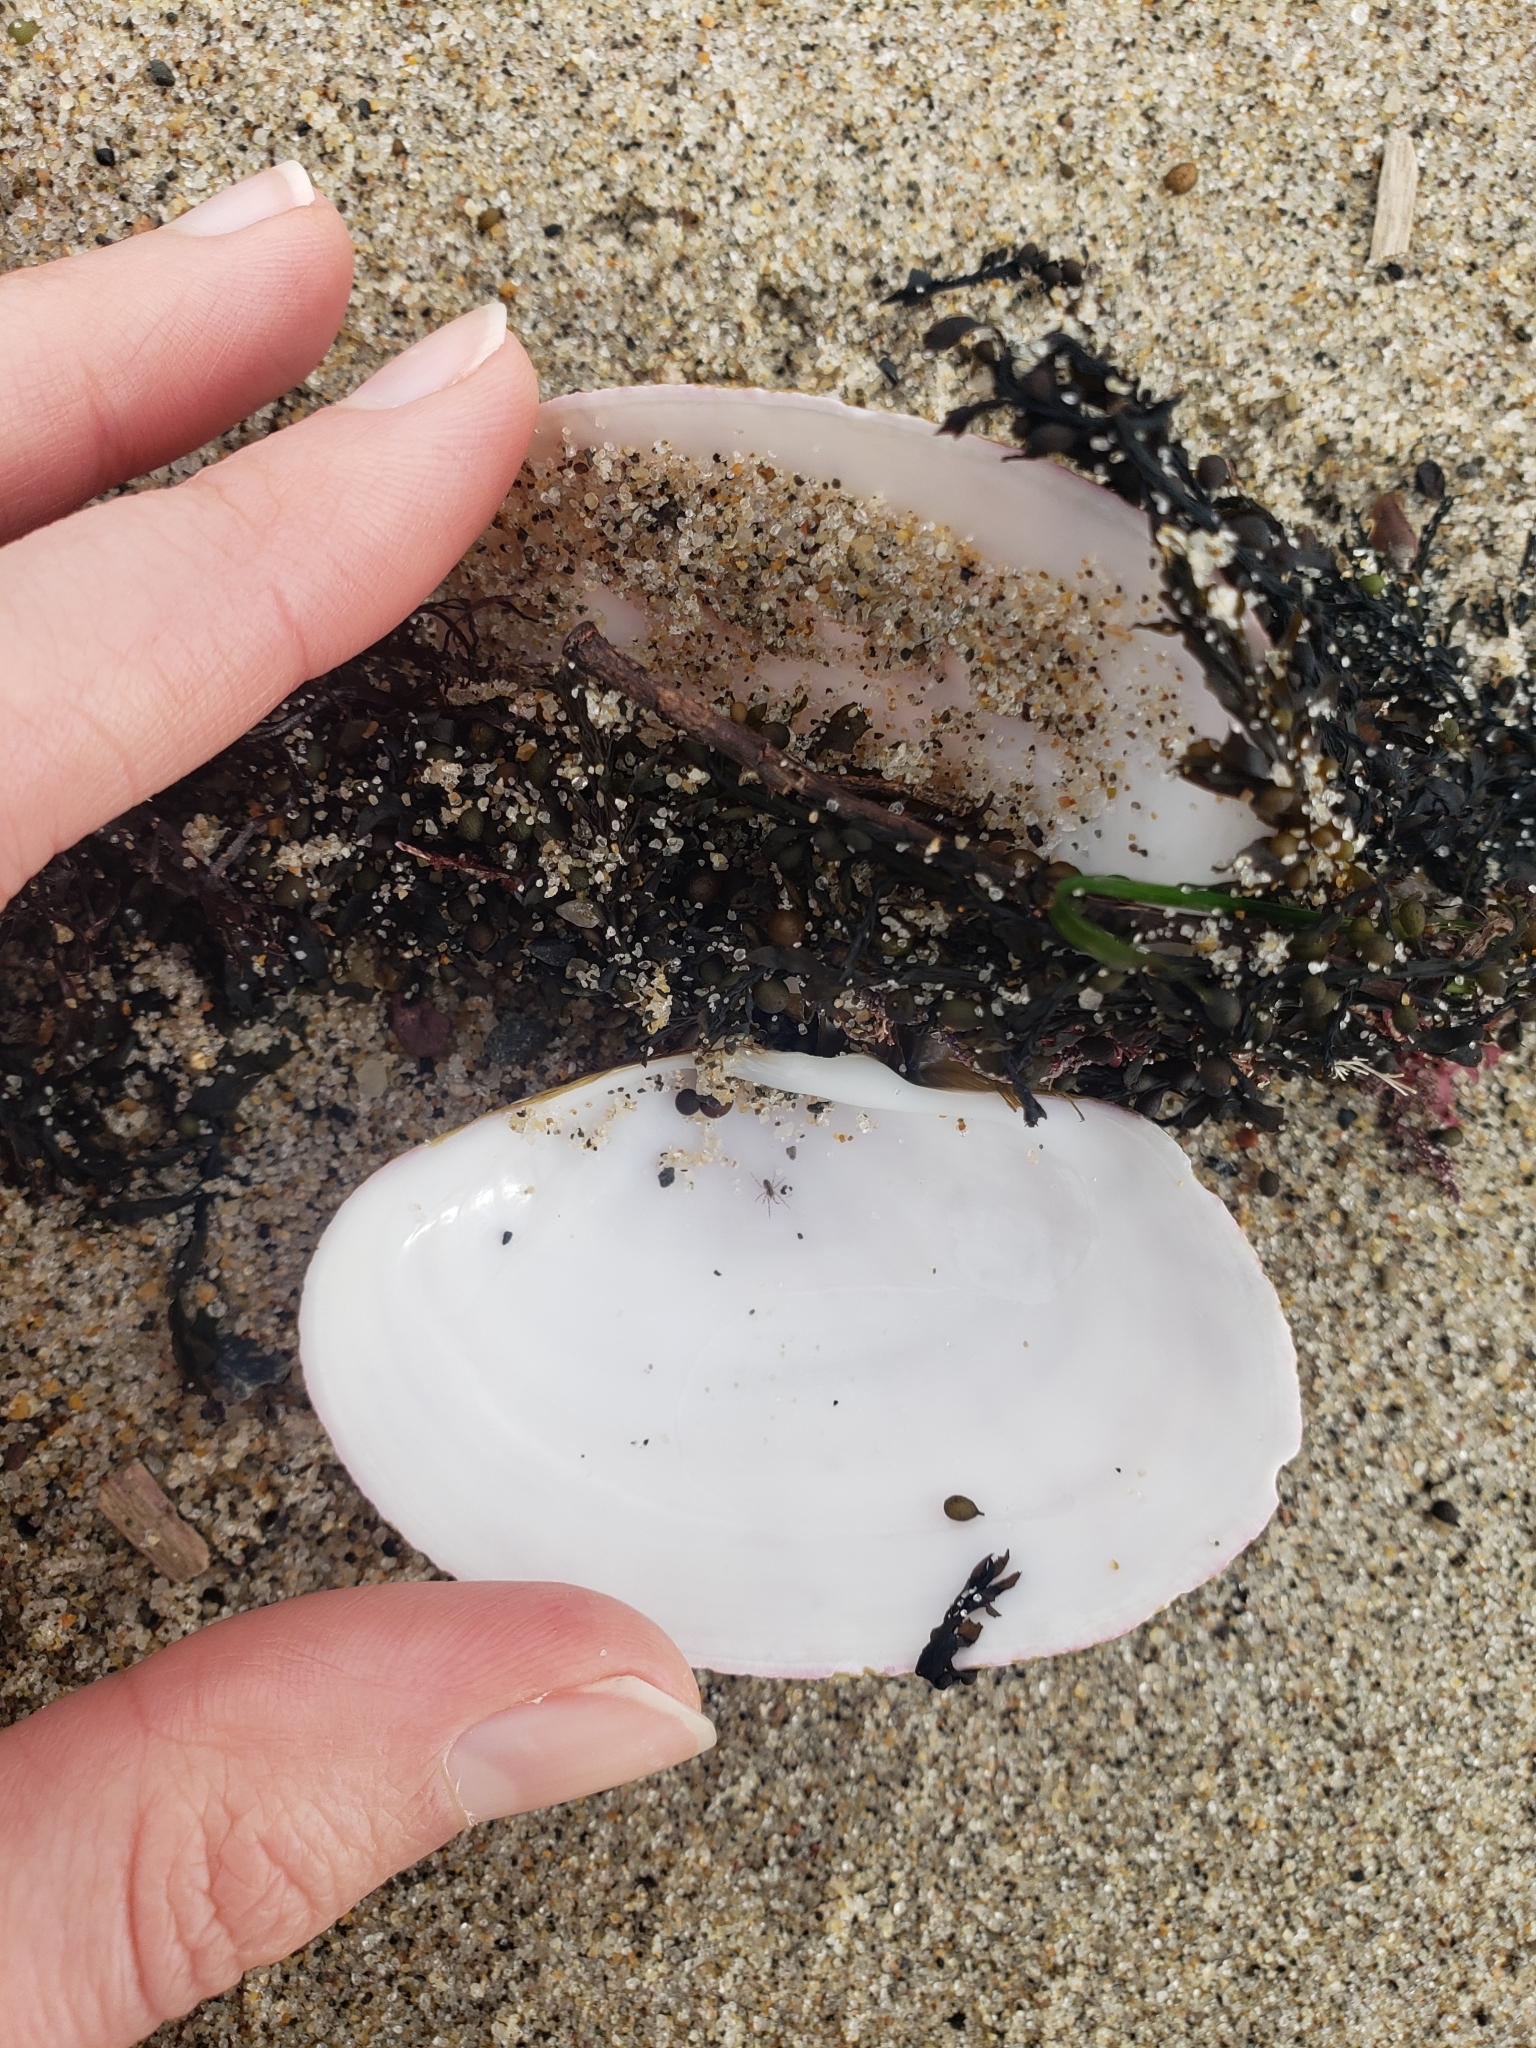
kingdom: Animalia
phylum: Mollusca
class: Bivalvia
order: Cardiida
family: Psammobiidae
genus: Gari
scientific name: Gari californica
